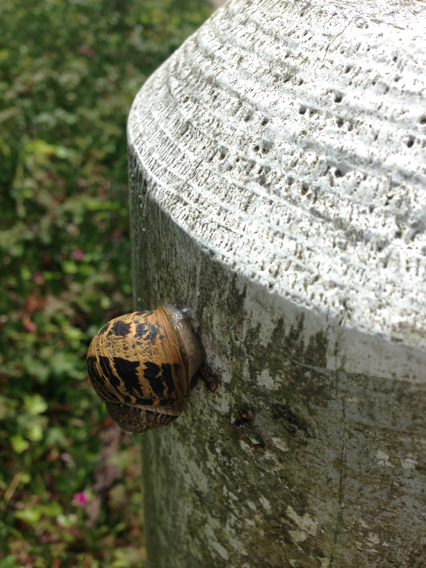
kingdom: Animalia
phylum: Mollusca
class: Gastropoda
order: Stylommatophora
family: Helicidae
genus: Cornu
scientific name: Cornu aspersum
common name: Brown garden snail
